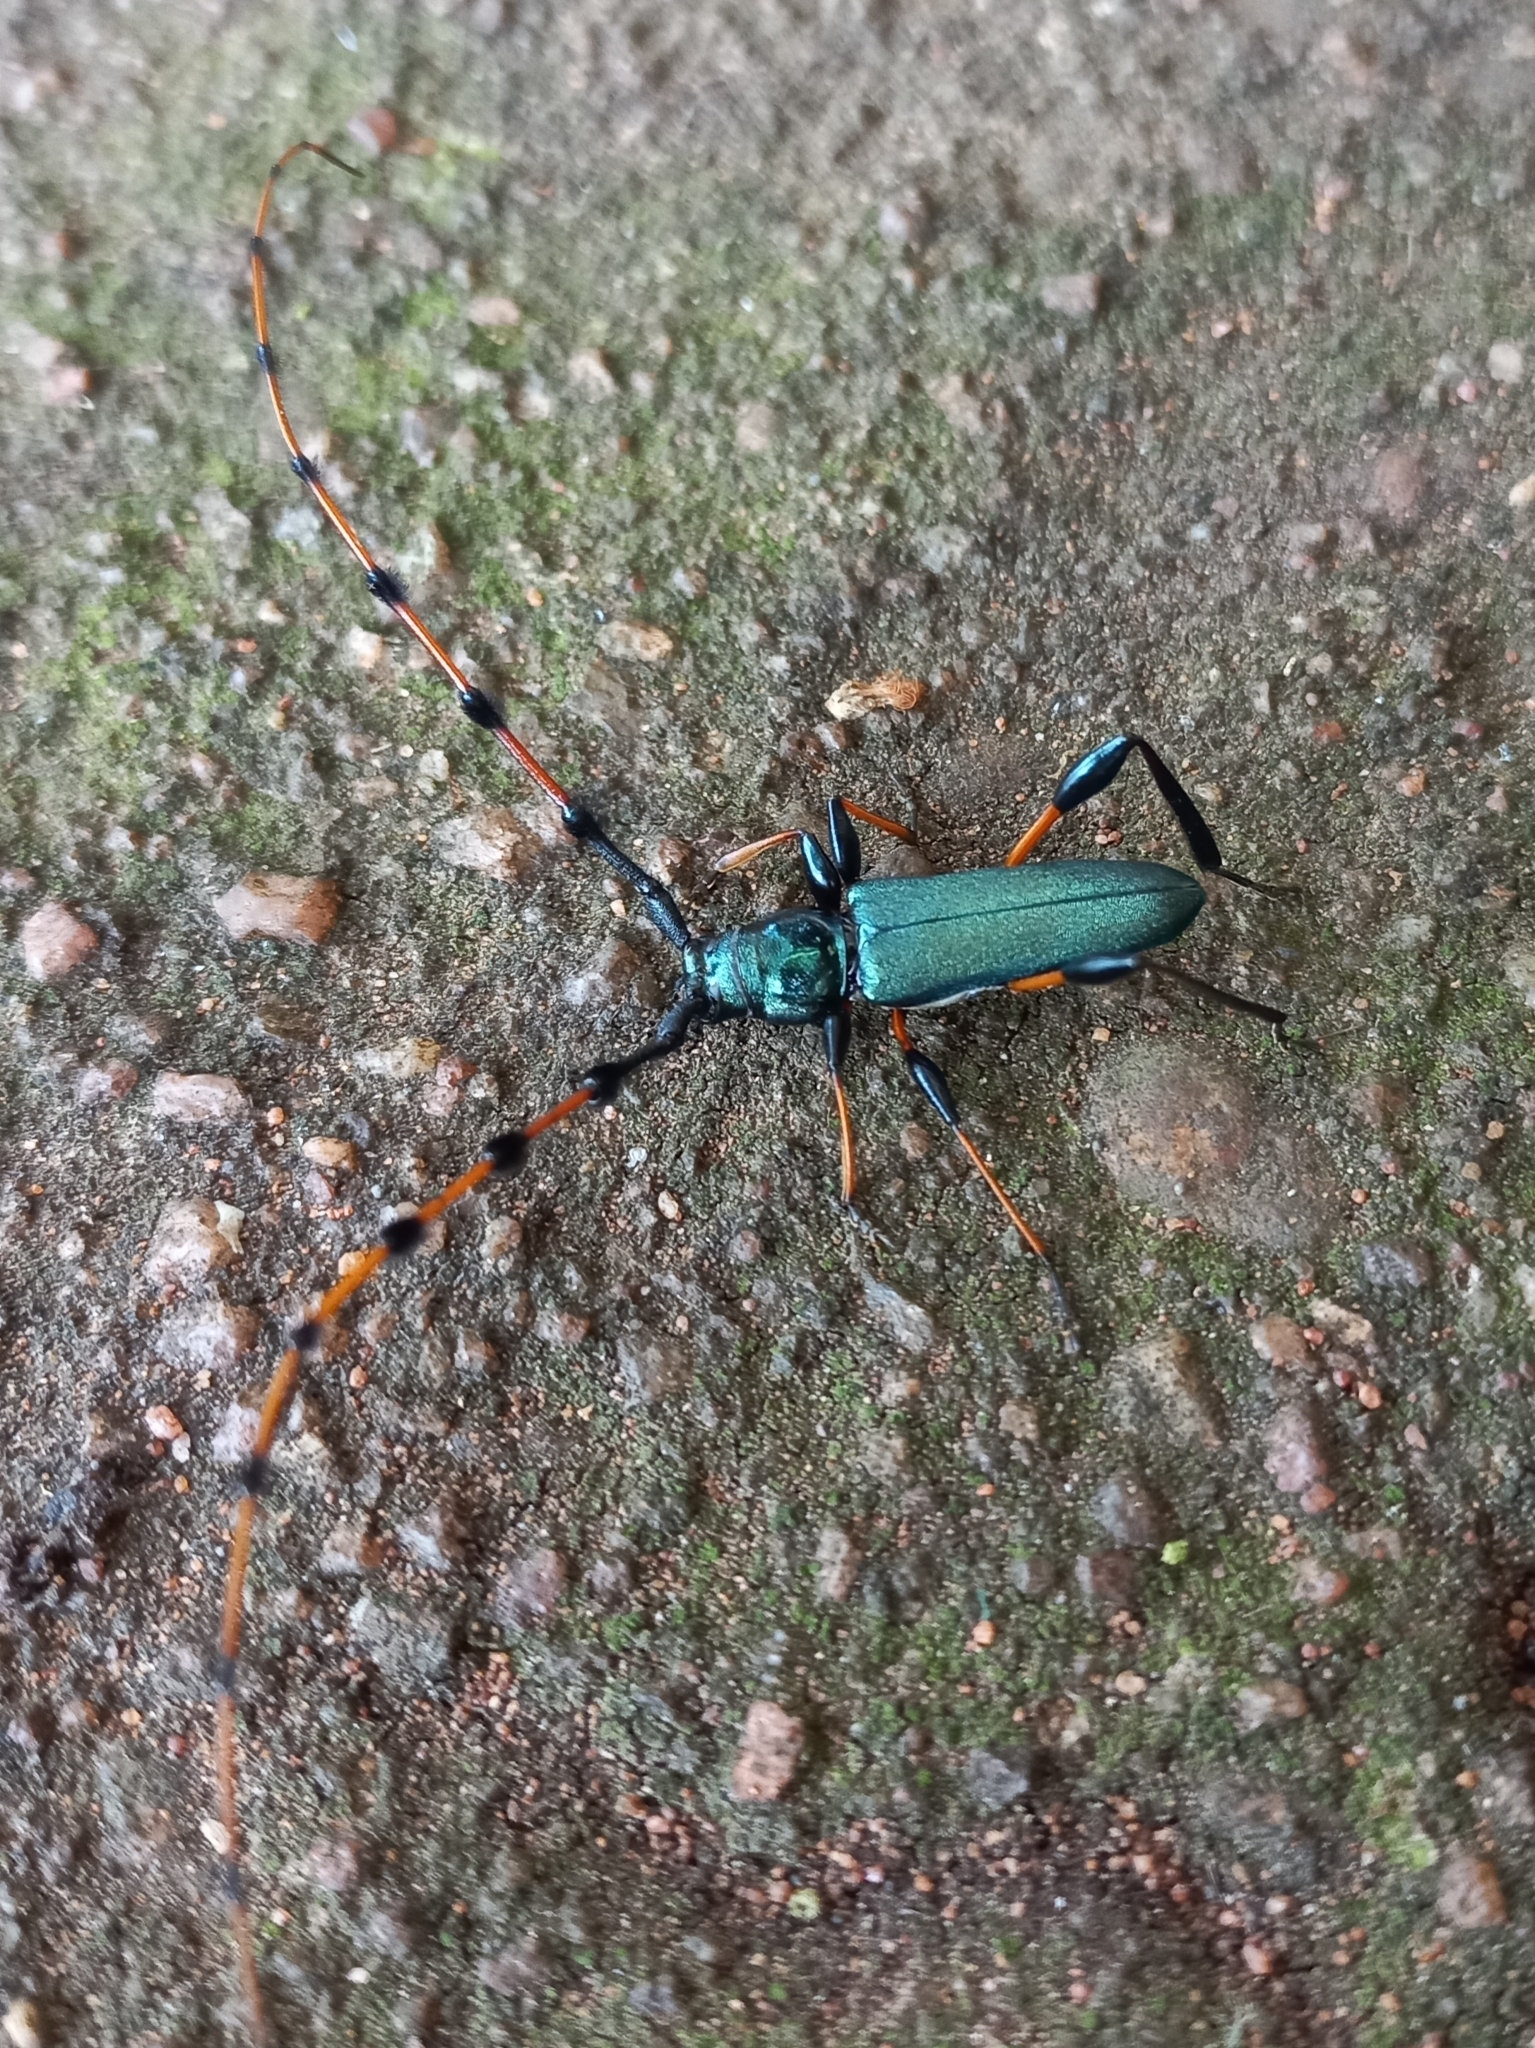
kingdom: Animalia
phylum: Arthropoda
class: Insecta
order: Coleoptera
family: Cerambycidae
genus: Evgenius
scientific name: Evgenius plumatus
